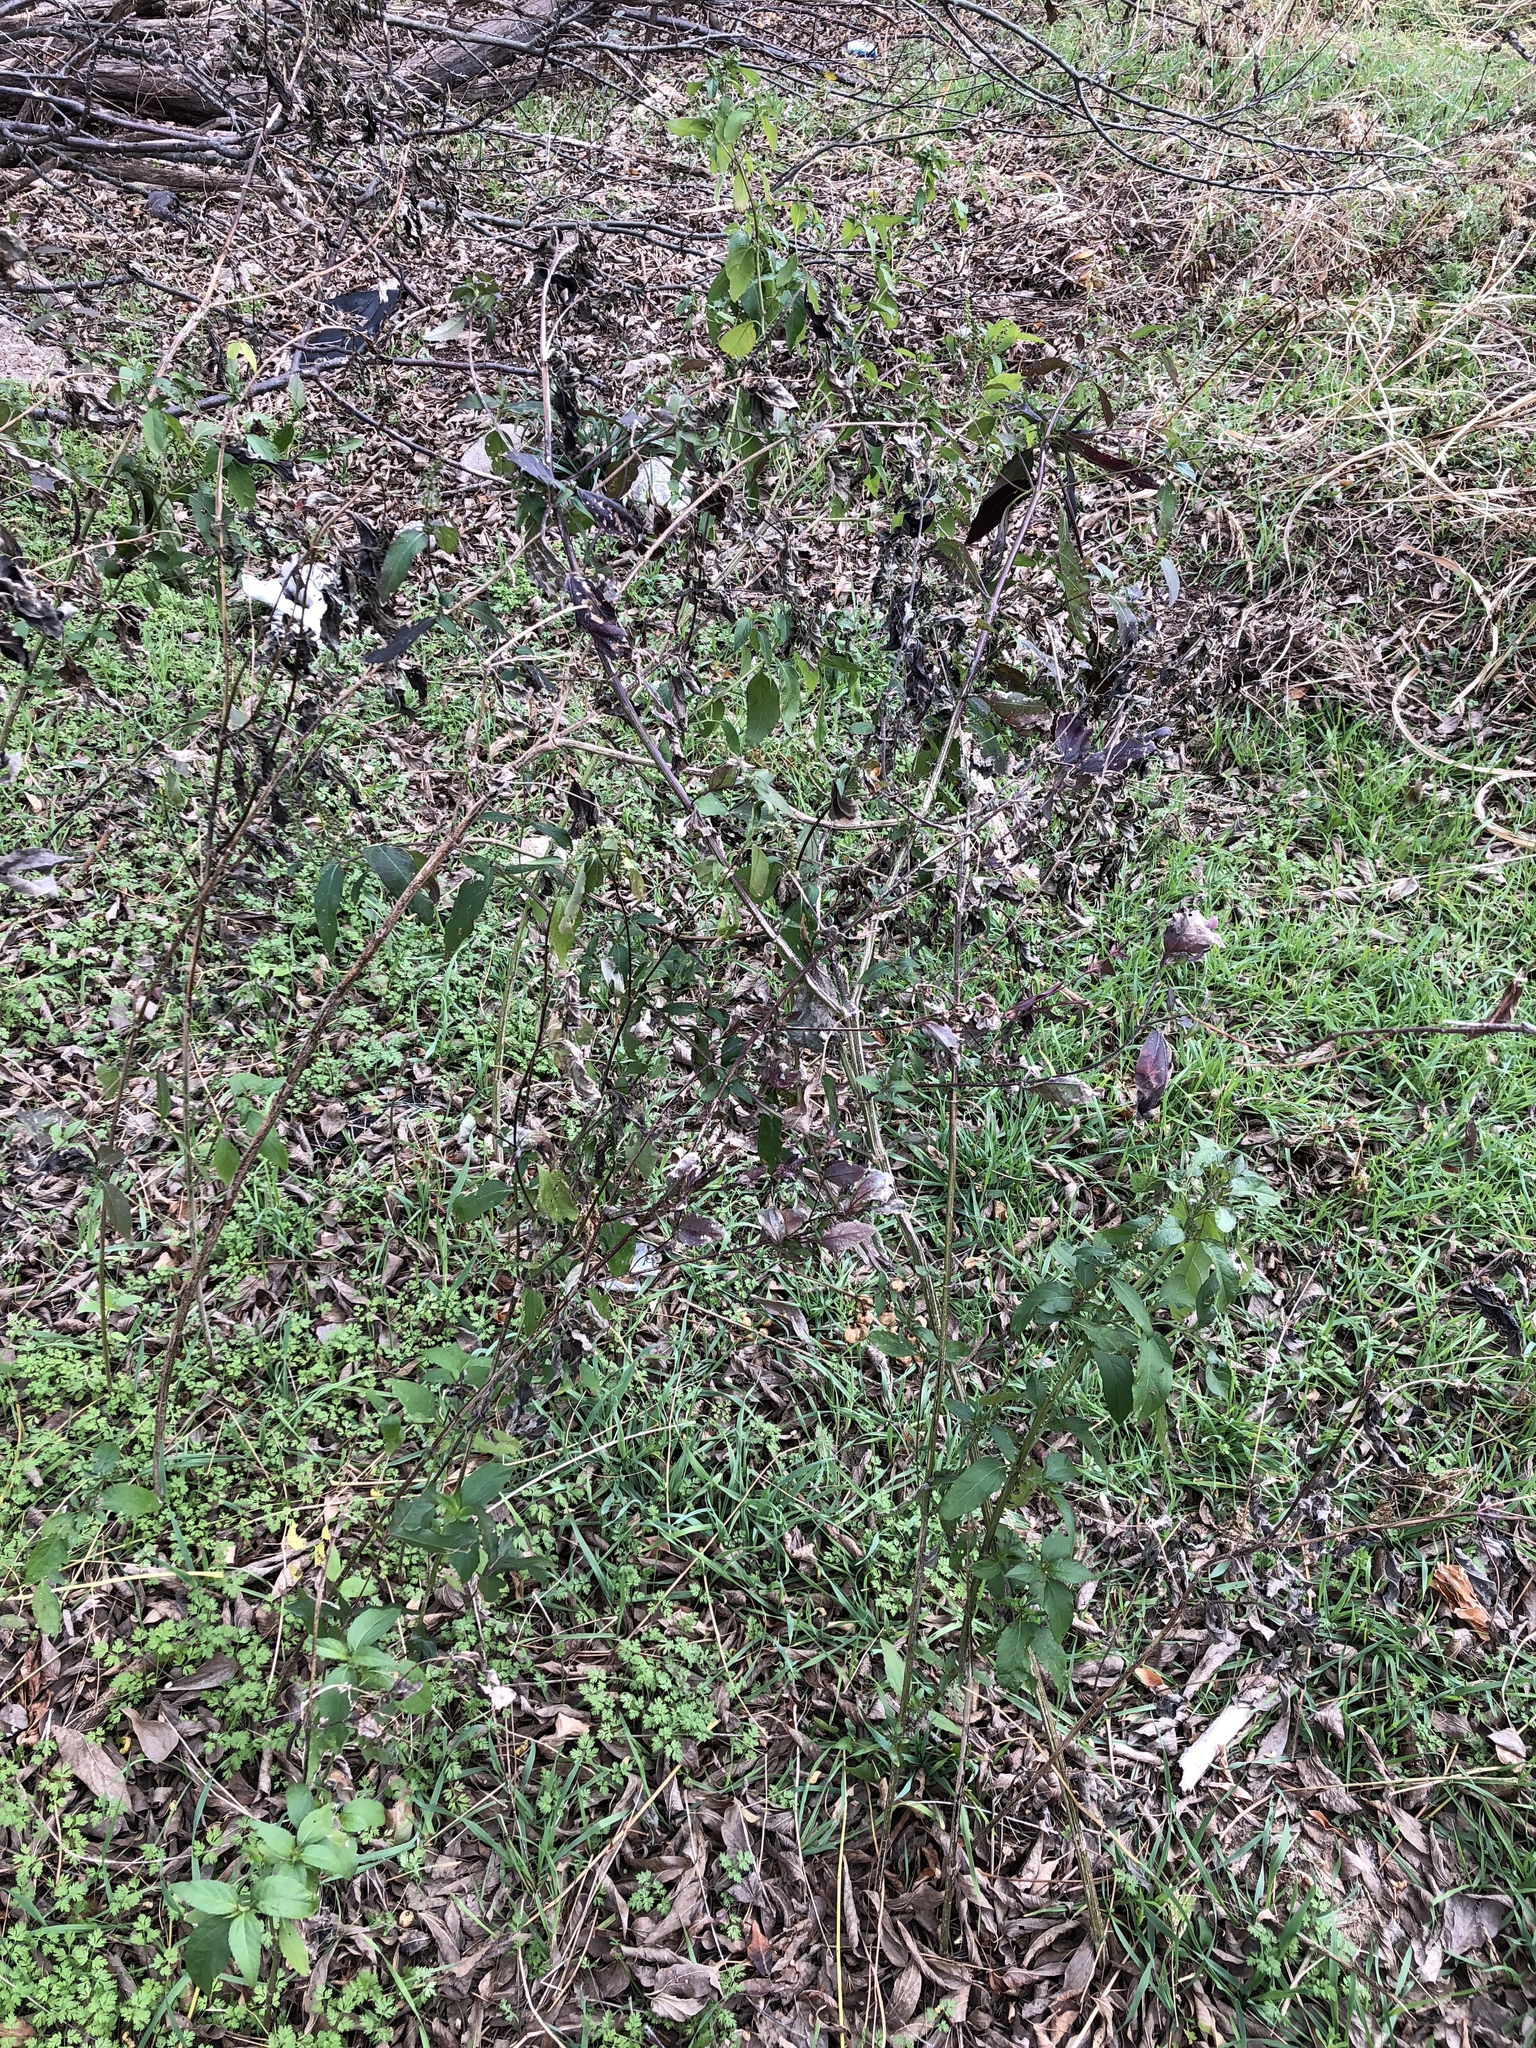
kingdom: Plantae
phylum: Tracheophyta
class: Magnoliopsida
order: Asterales
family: Asteraceae
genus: Ambrosia
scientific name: Ambrosia trifida
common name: Giant ragweed
